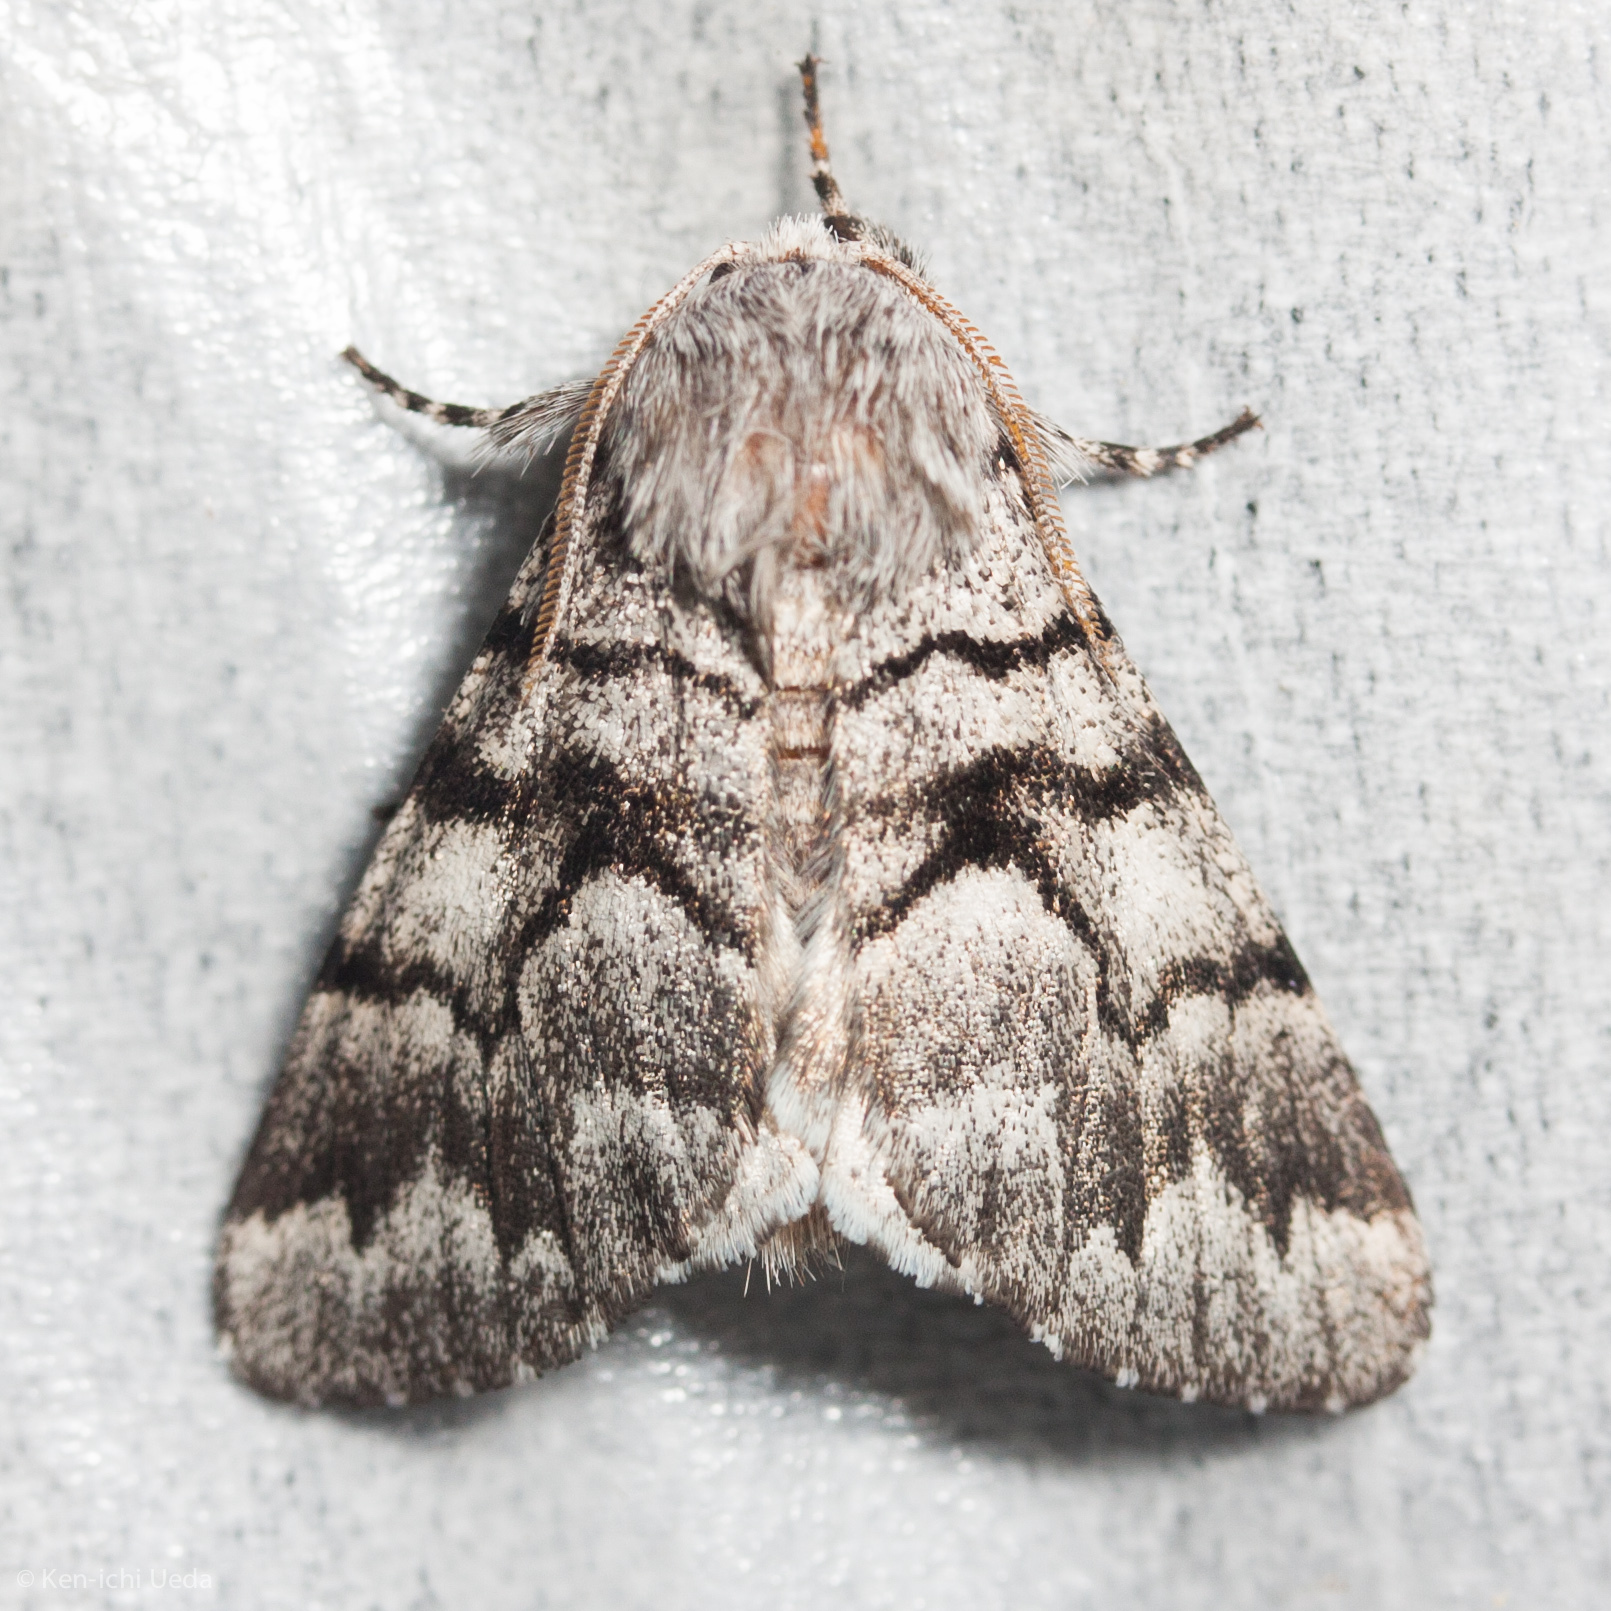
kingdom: Animalia
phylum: Arthropoda
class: Insecta
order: Lepidoptera
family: Noctuidae
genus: Panthea
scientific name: Panthea furcilla
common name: Eastern panthea moth
